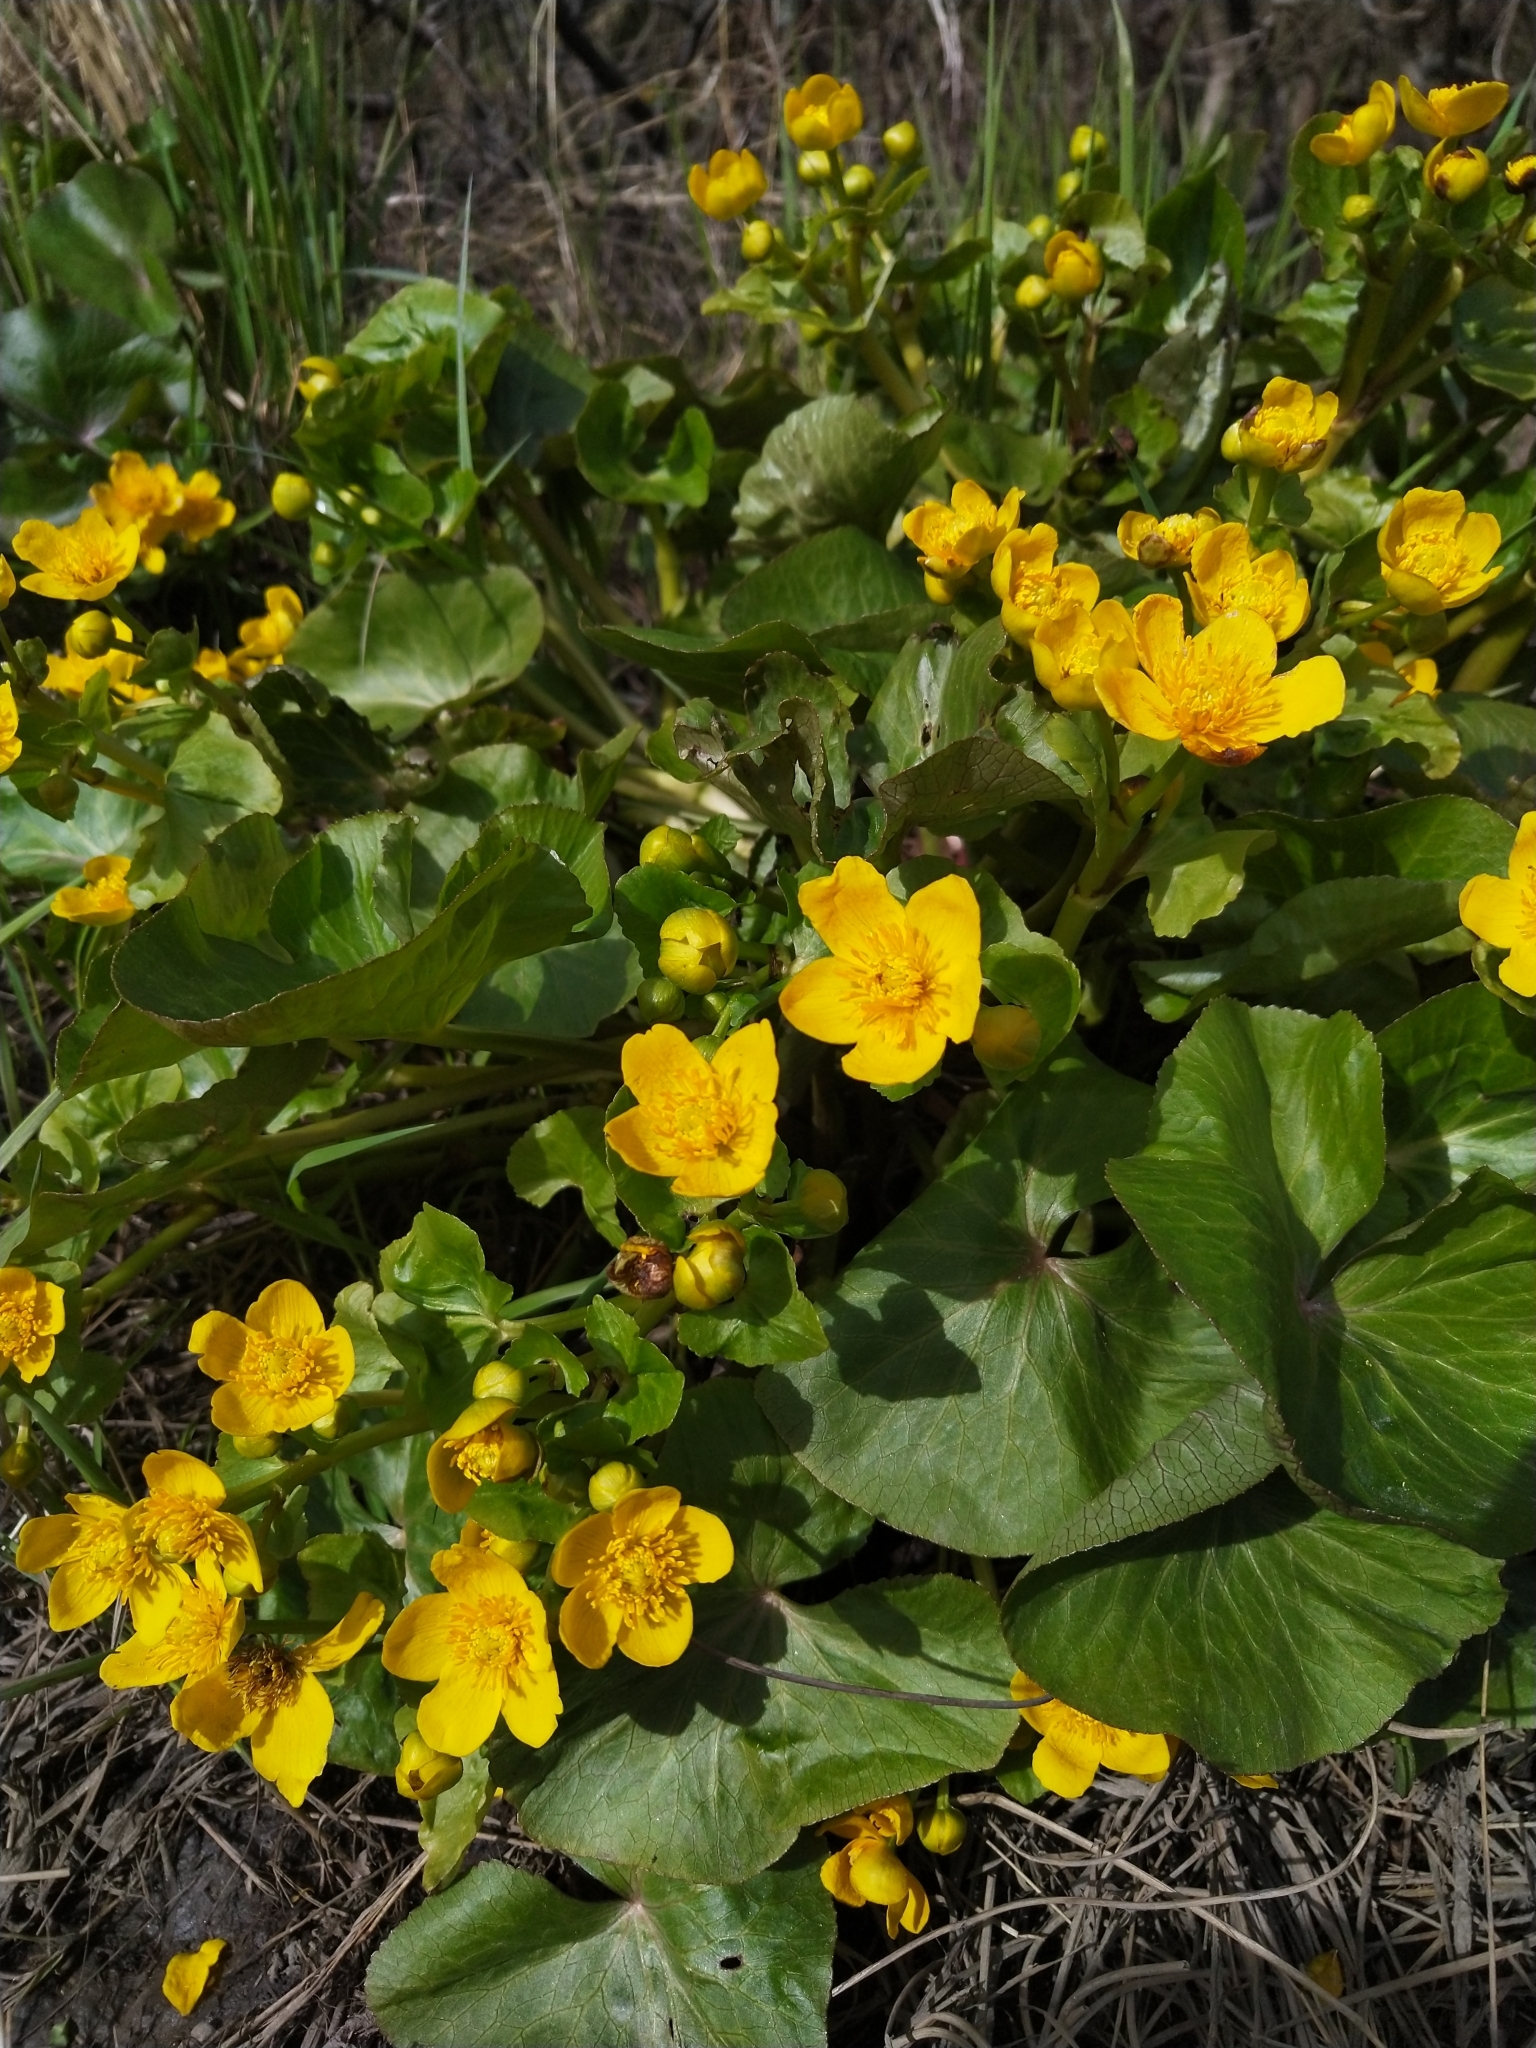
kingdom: Plantae
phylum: Tracheophyta
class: Magnoliopsida
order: Ranunculales
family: Ranunculaceae
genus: Caltha
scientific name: Caltha palustris
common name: Marsh marigold
